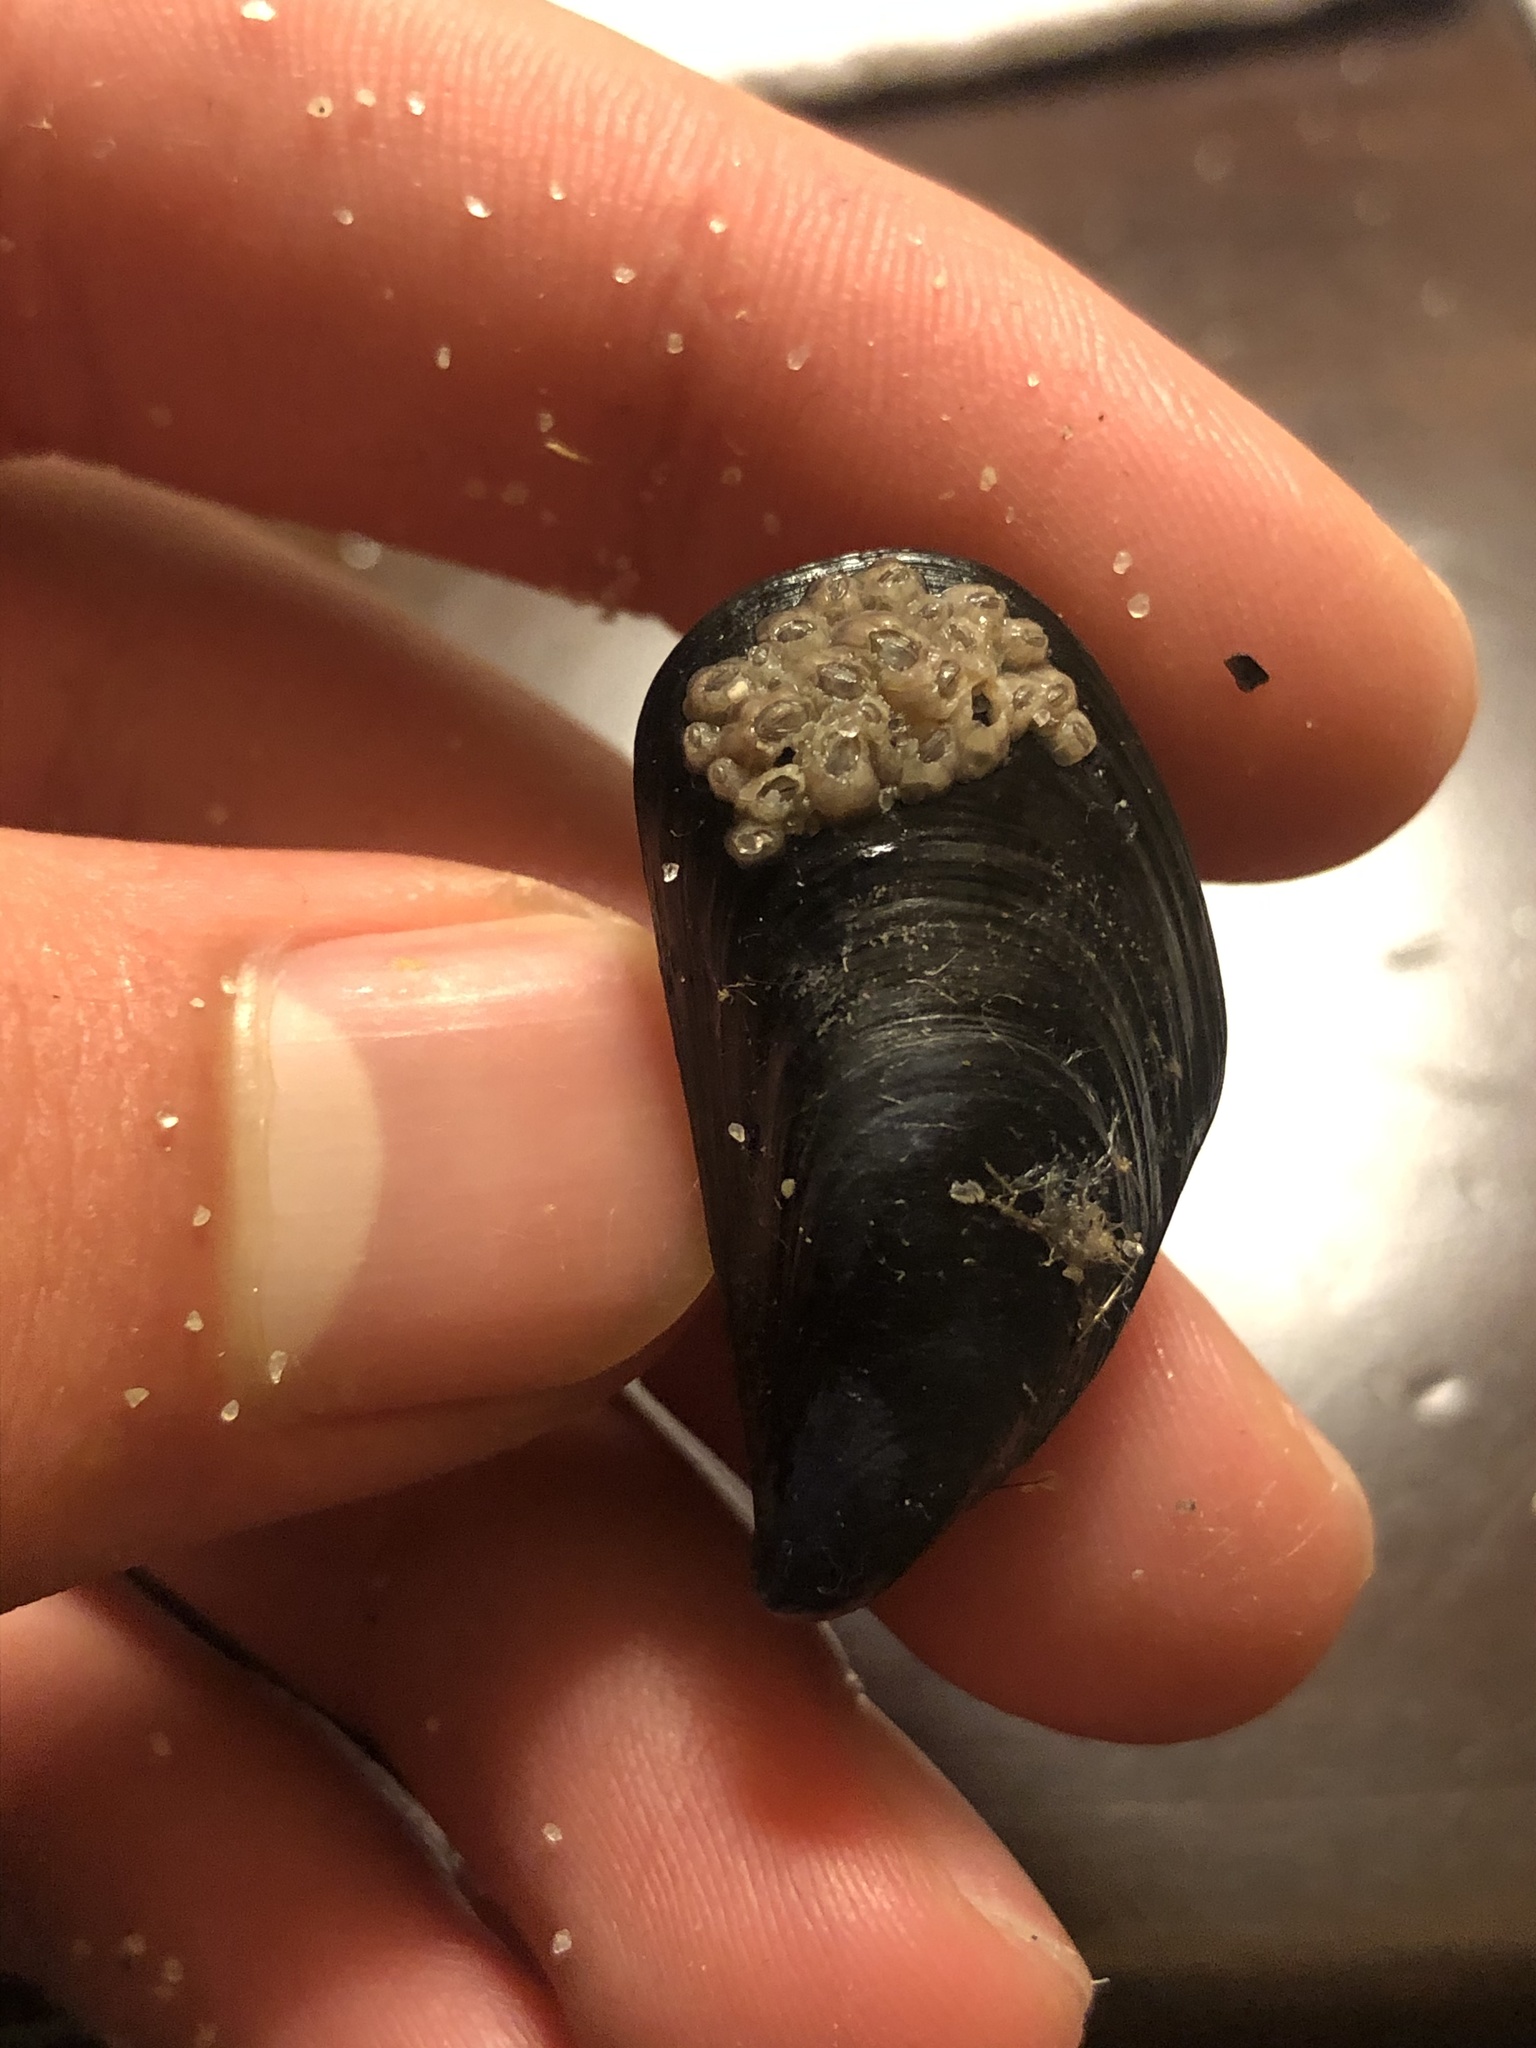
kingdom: Animalia
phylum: Mollusca
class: Bivalvia
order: Mytilida
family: Mytilidae
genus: Mytilus
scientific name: Mytilus galloprovincialis
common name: Mediterranean mussel
